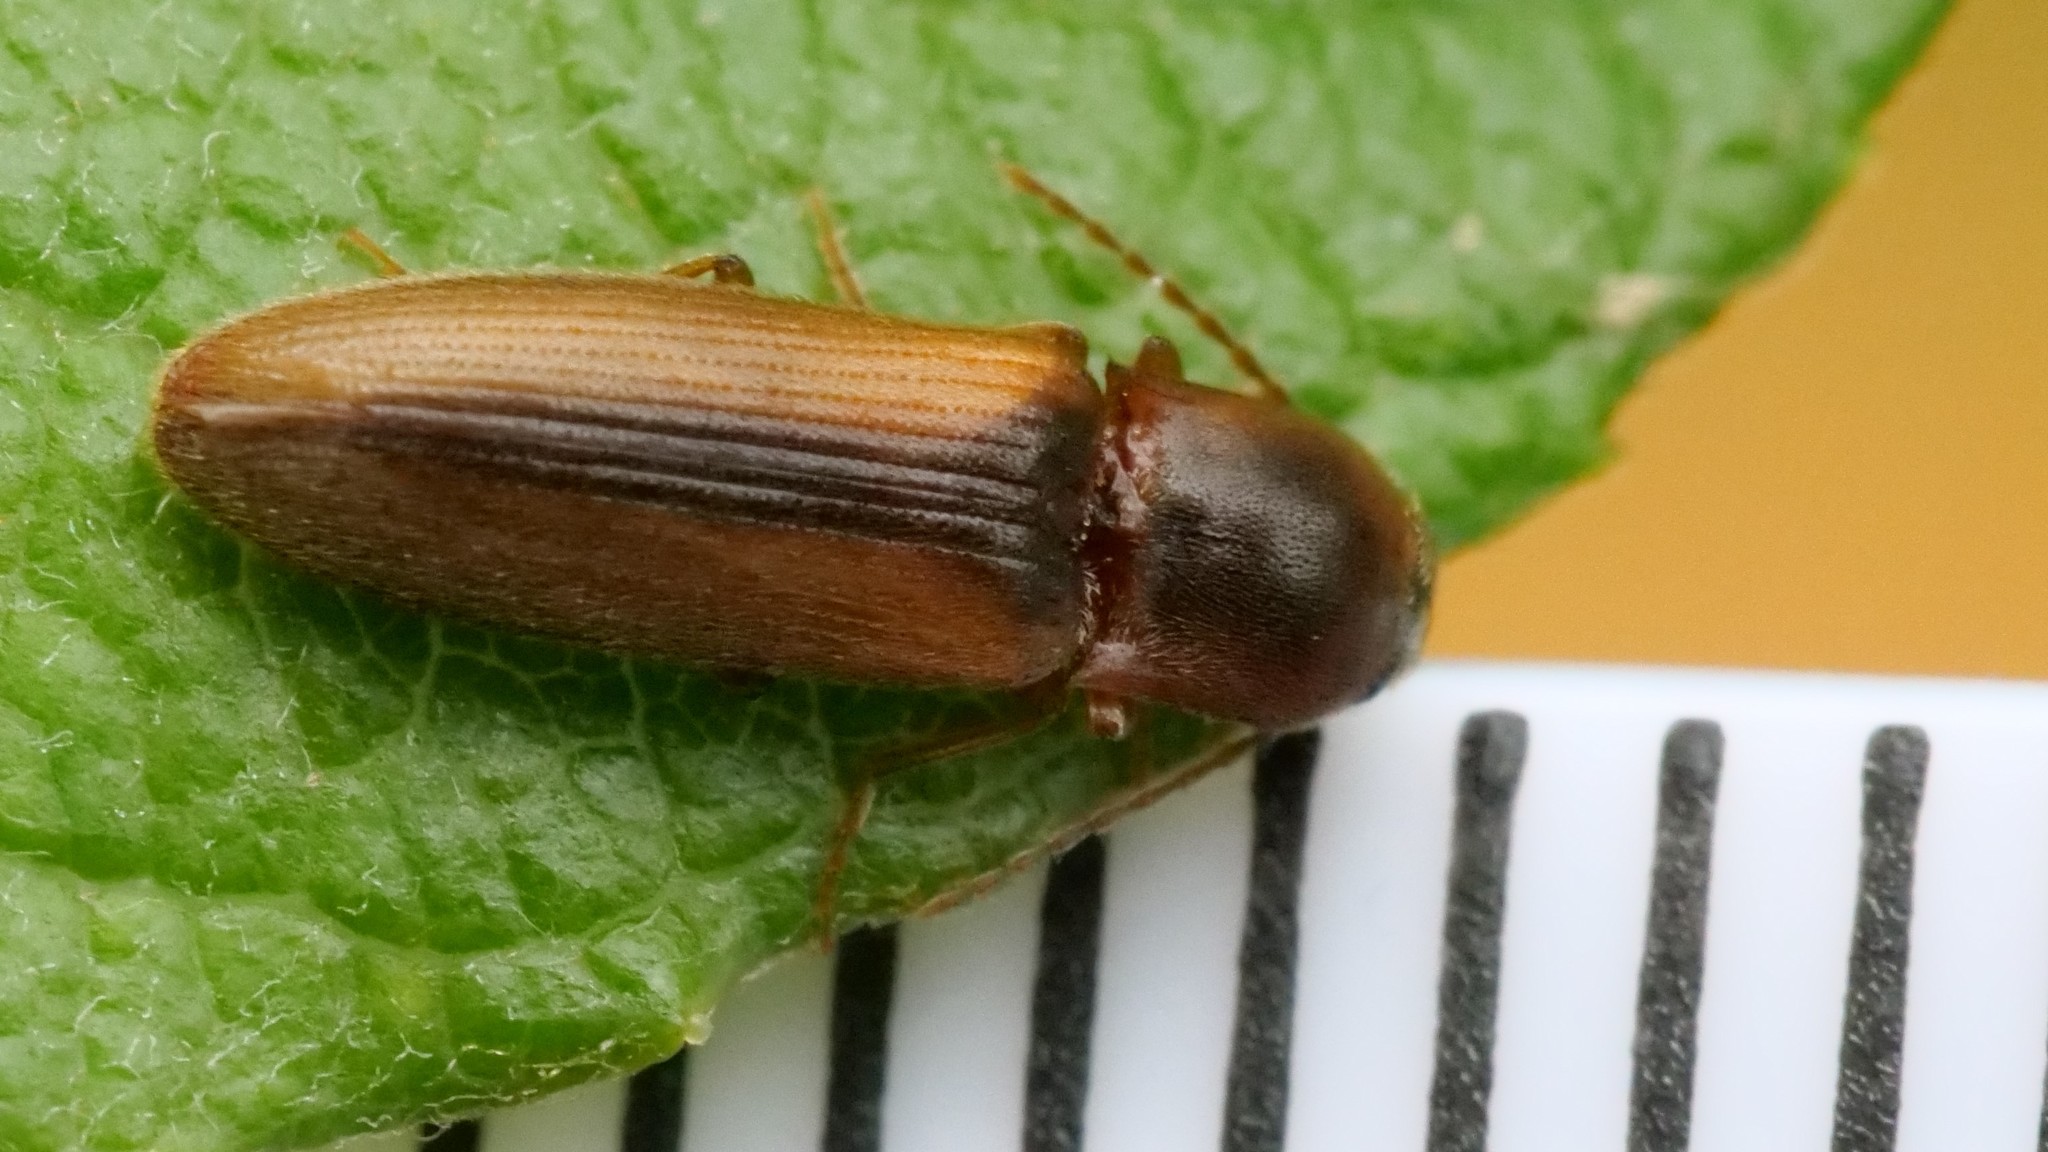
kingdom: Animalia
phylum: Arthropoda
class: Insecta
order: Coleoptera
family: Elateridae
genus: Dalopius
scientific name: Dalopius marginatus
